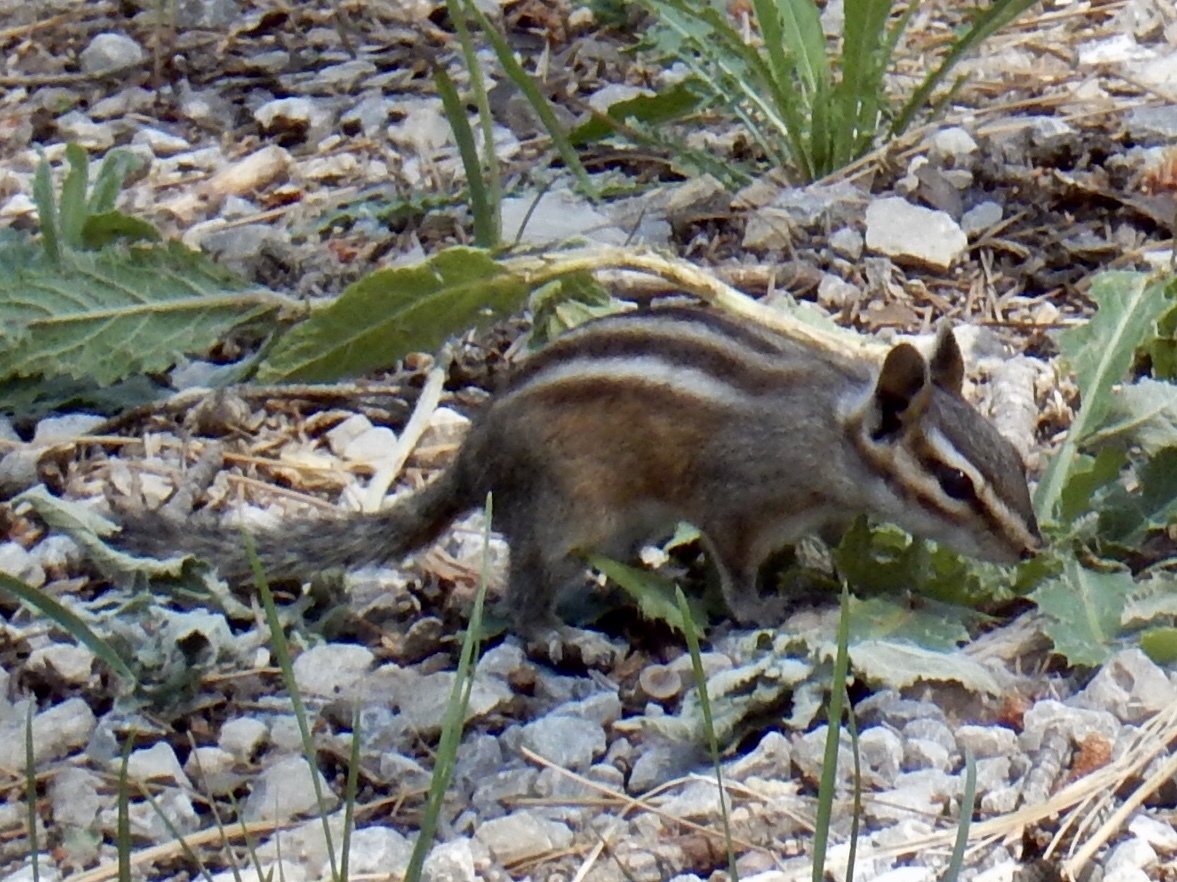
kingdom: Animalia
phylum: Chordata
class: Mammalia
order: Rodentia
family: Sciuridae
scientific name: Sciuridae
